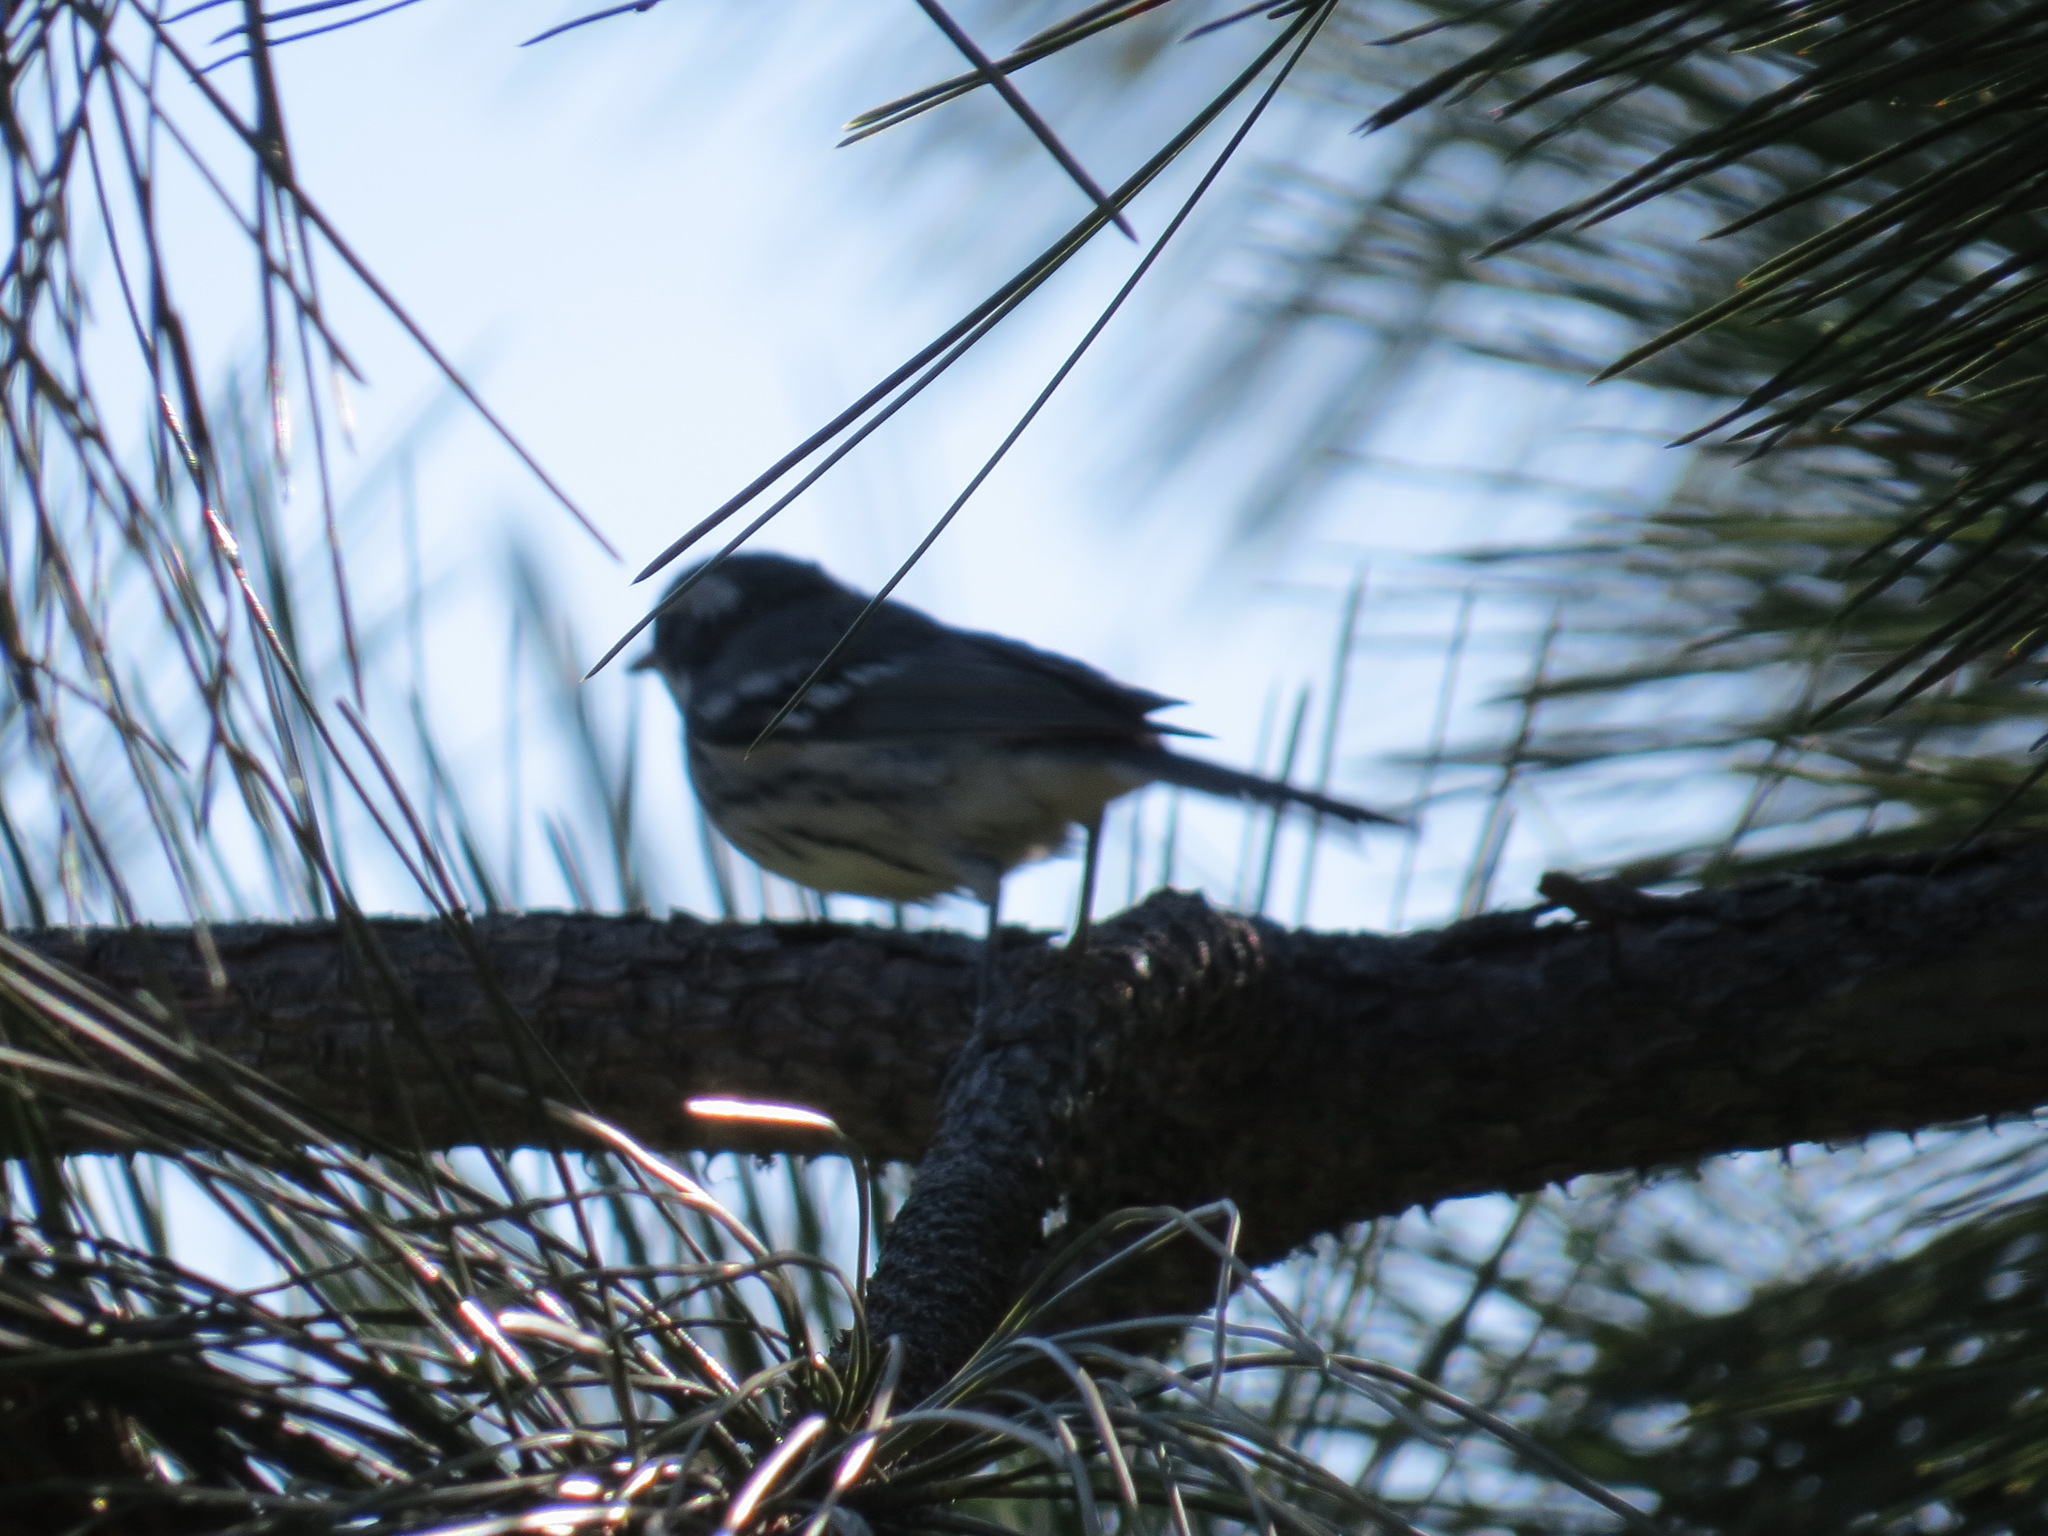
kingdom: Animalia
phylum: Chordata
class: Aves
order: Passeriformes
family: Parulidae
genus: Setophaga
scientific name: Setophaga nigrescens
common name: Black-throated gray warbler
